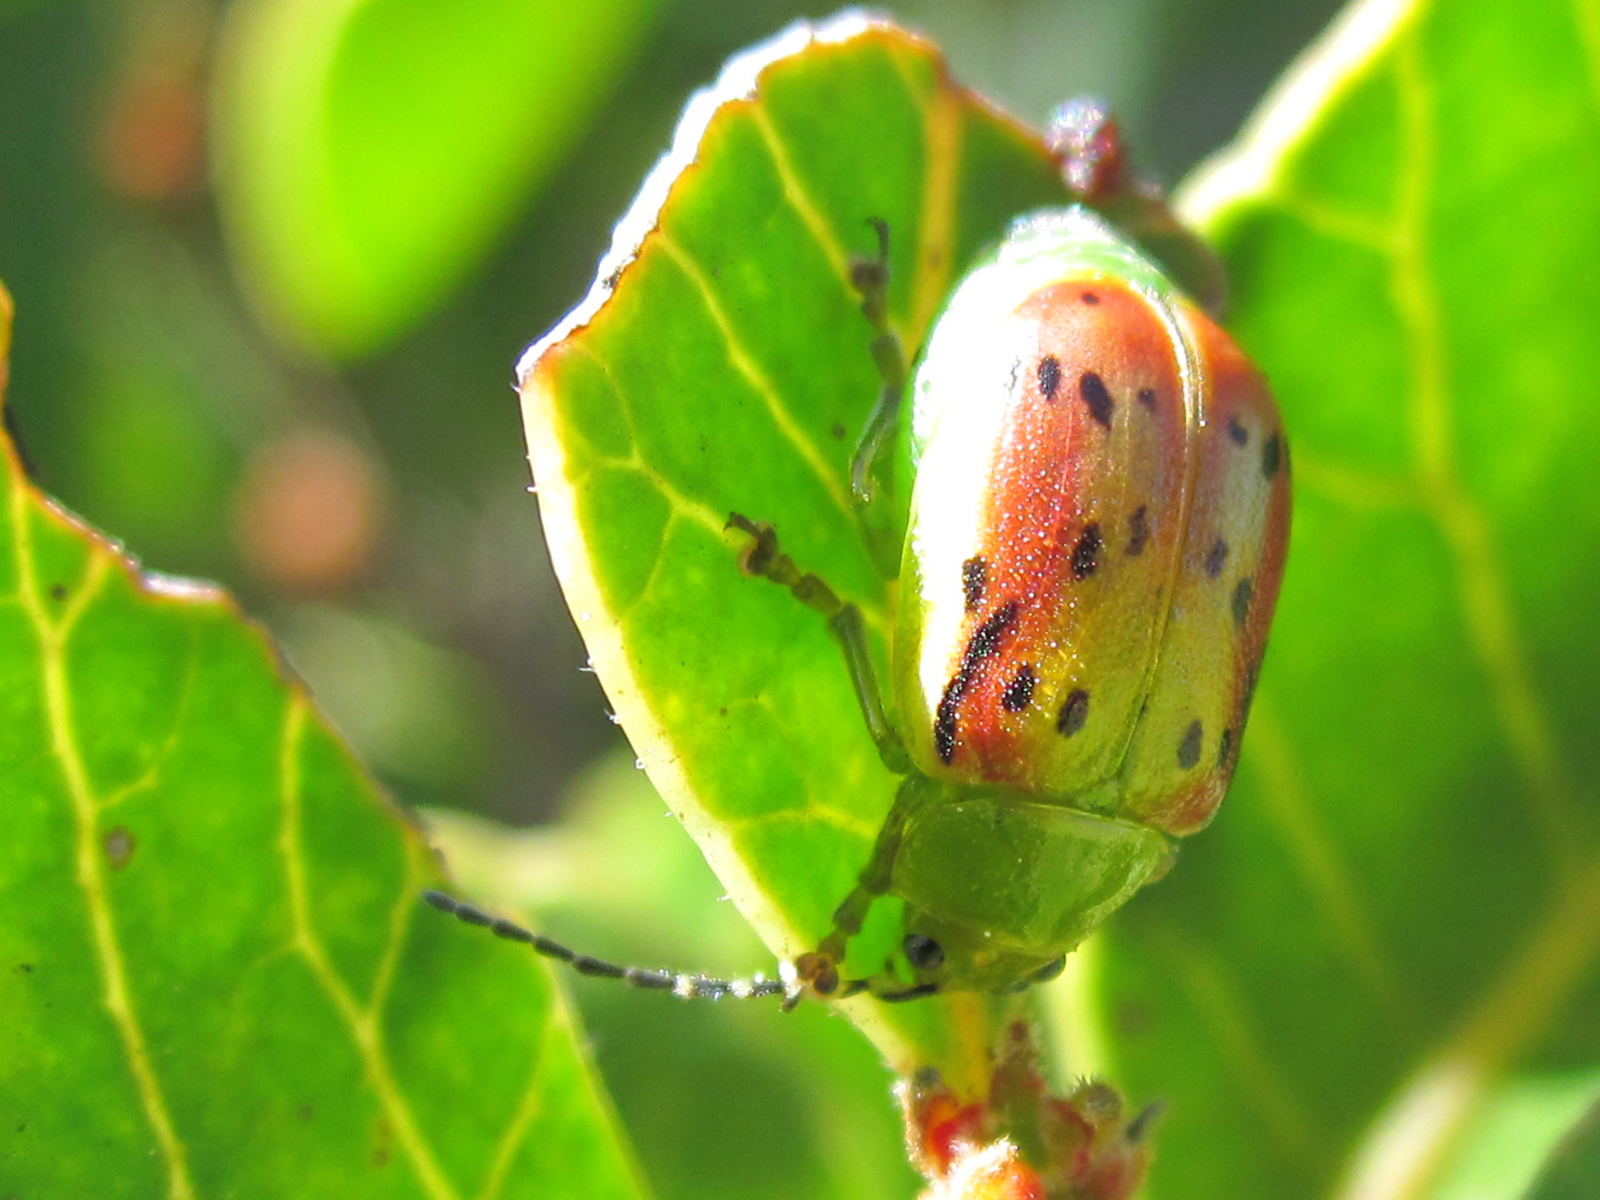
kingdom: Animalia
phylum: Arthropoda
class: Insecta
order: Coleoptera
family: Chrysomelidae
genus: Procalus
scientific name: Procalus
